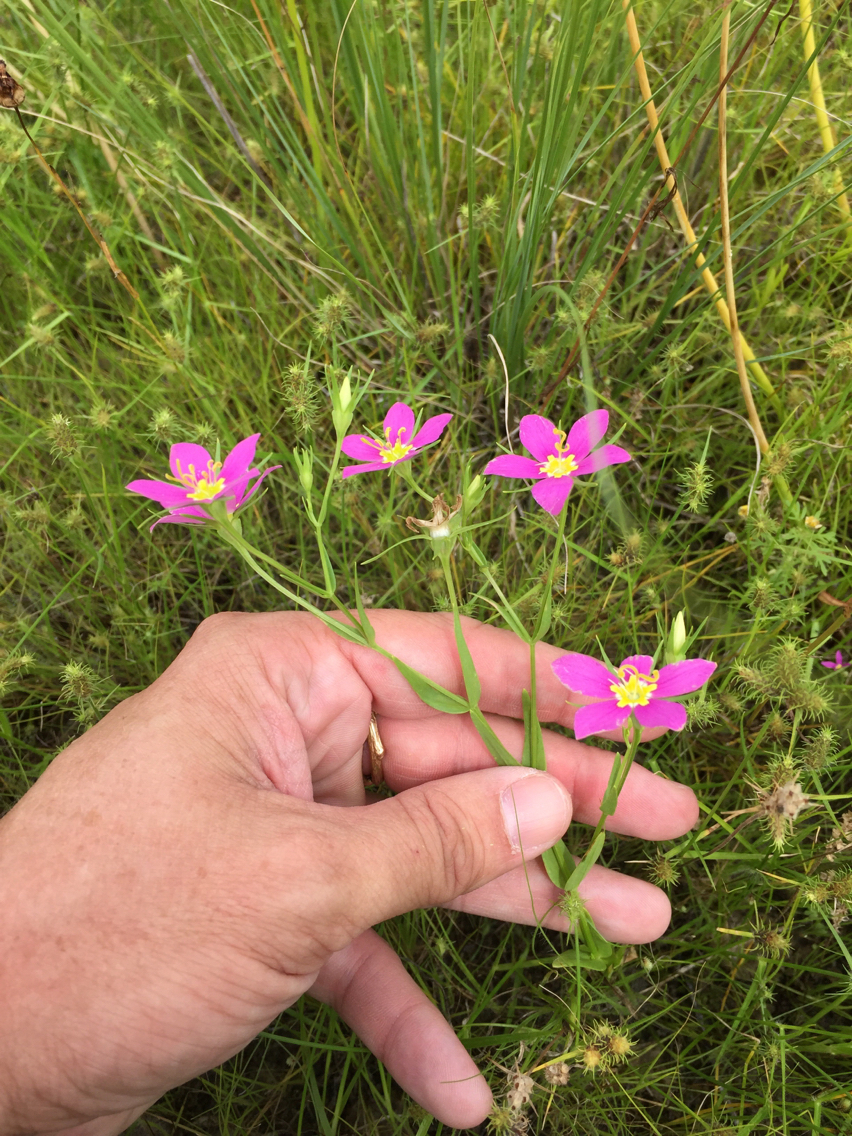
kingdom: Plantae
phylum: Tracheophyta
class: Magnoliopsida
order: Gentianales
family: Gentianaceae
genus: Sabatia
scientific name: Sabatia campestris
